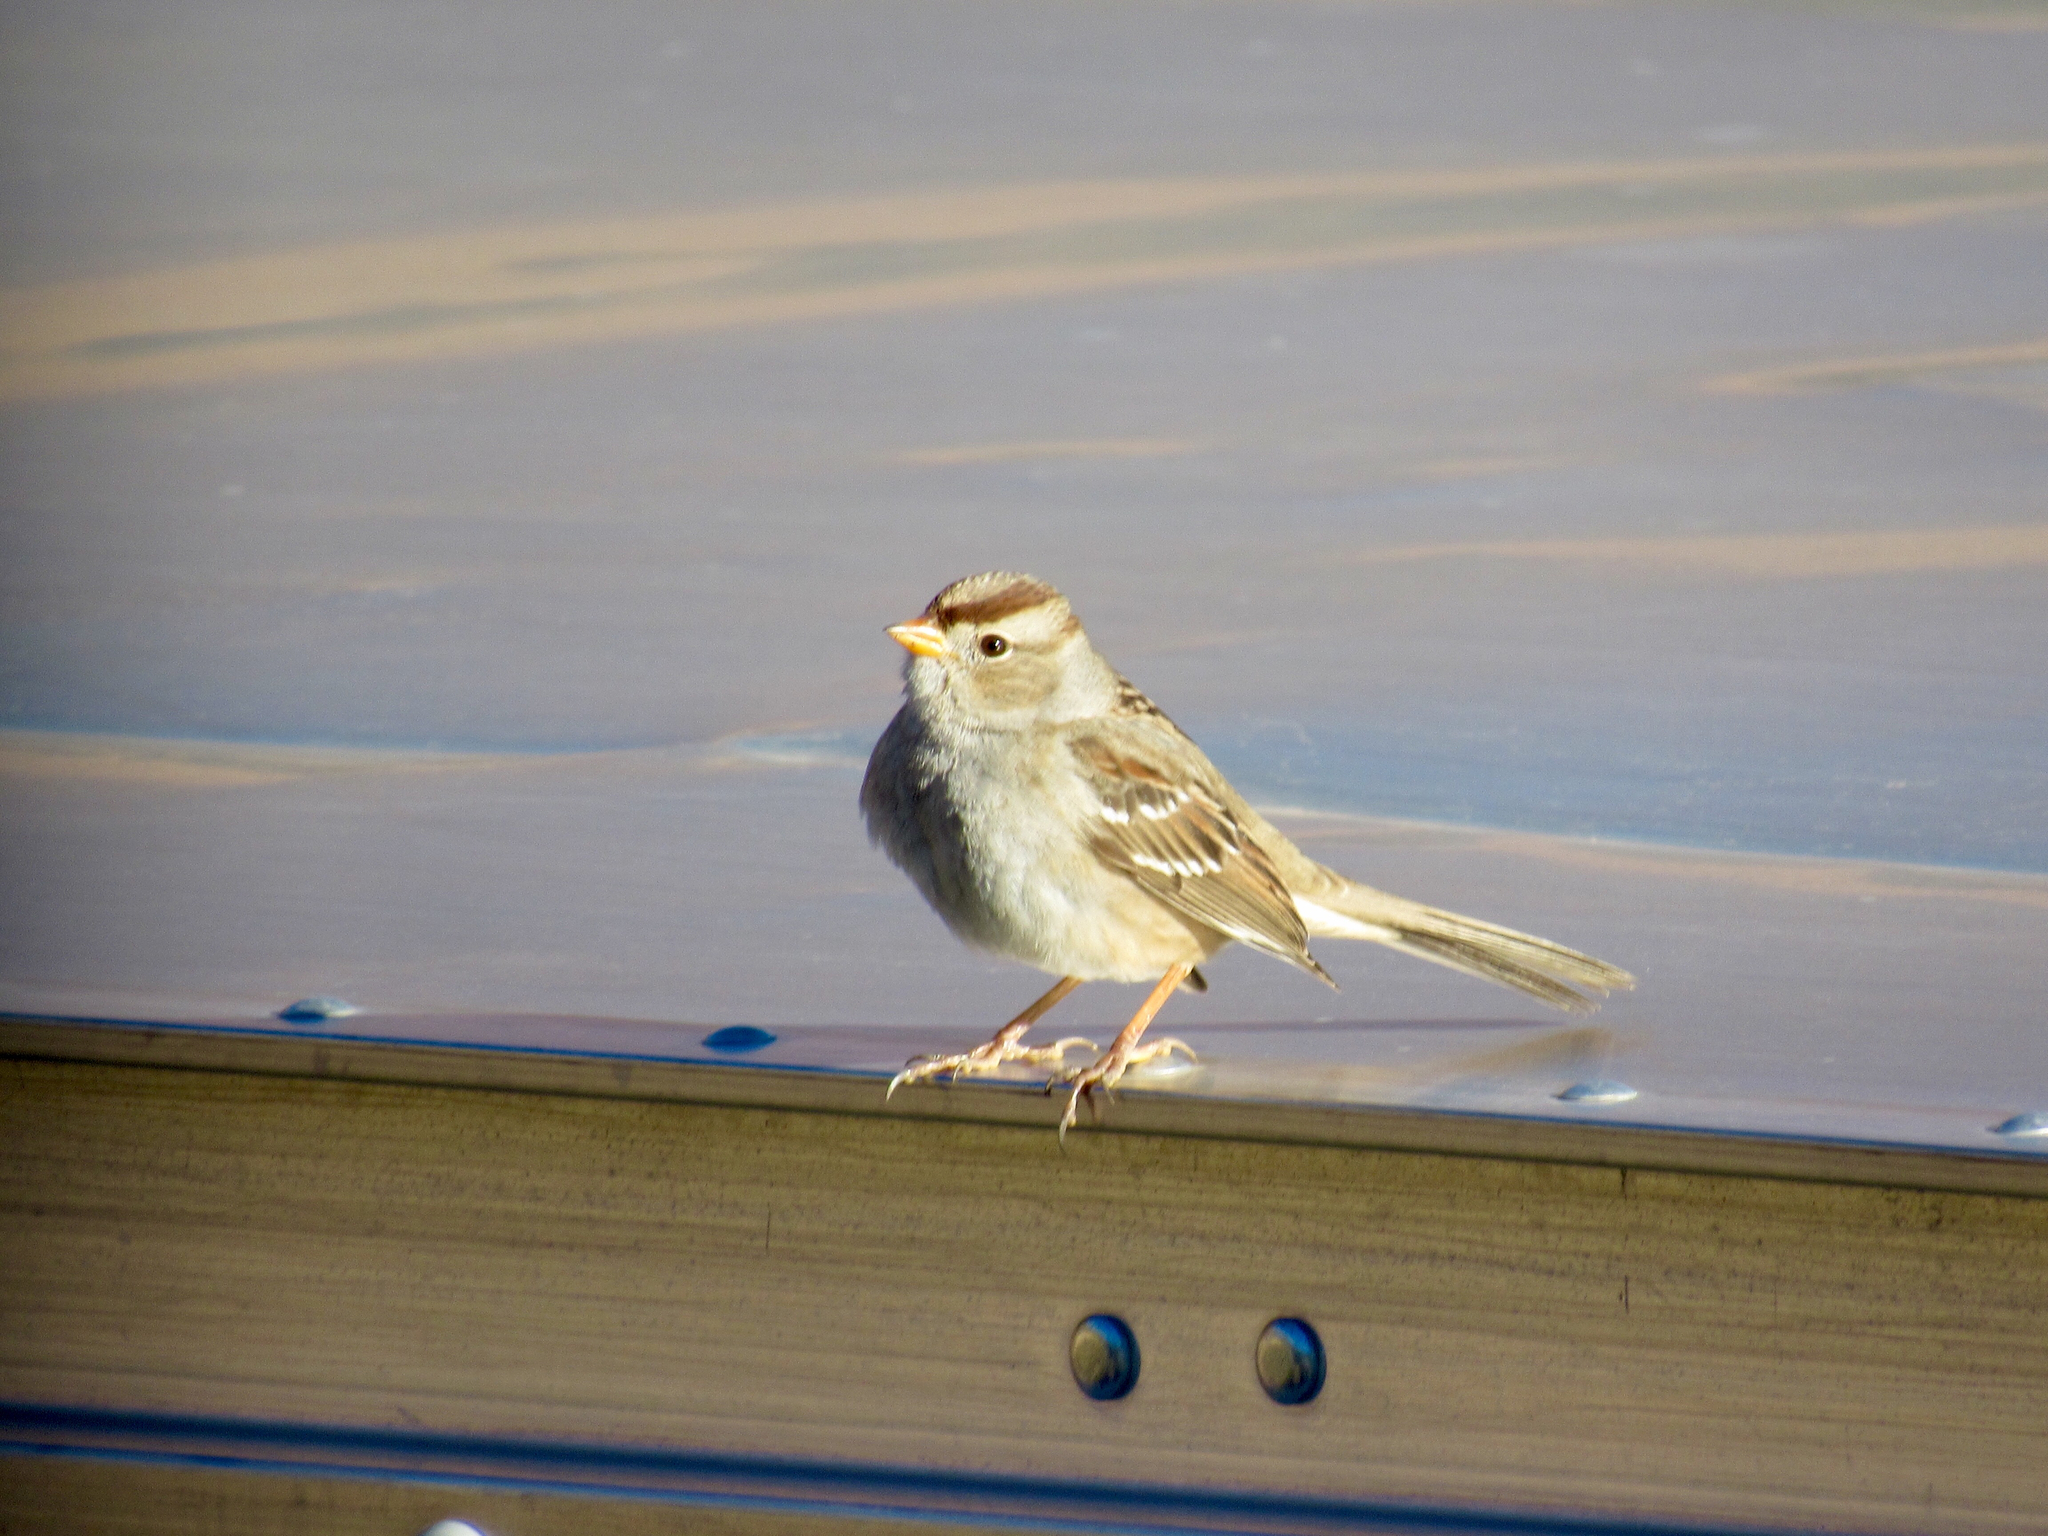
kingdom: Animalia
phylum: Chordata
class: Aves
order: Passeriformes
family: Passerellidae
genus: Zonotrichia
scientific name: Zonotrichia leucophrys
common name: White-crowned sparrow
